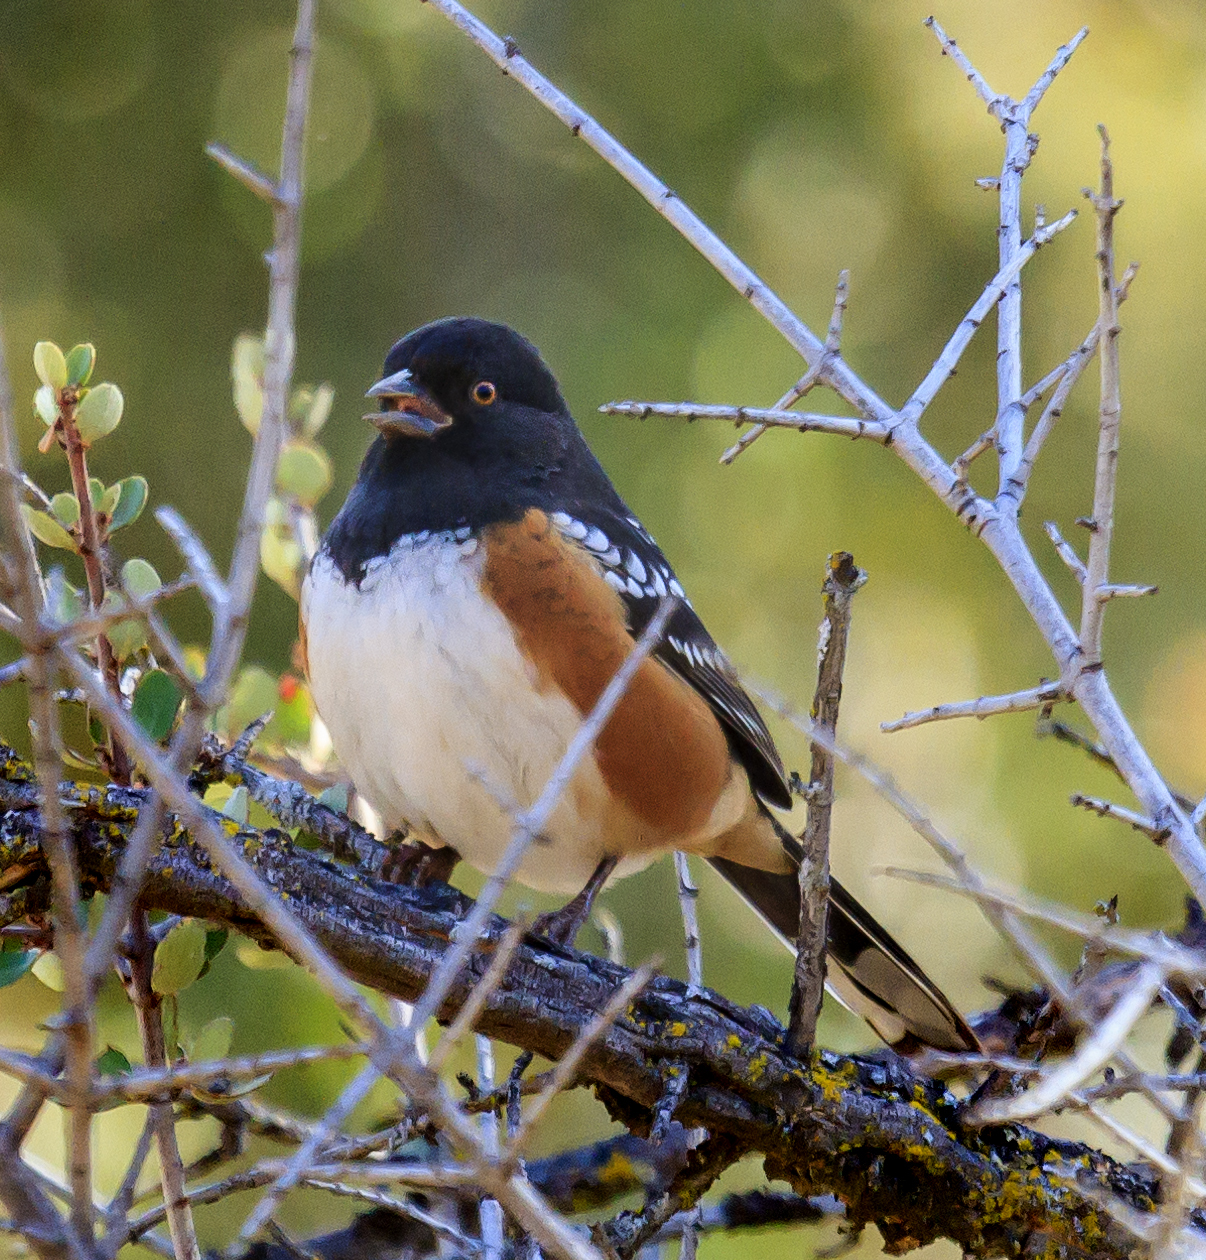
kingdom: Animalia
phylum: Chordata
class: Aves
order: Passeriformes
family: Passerellidae
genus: Pipilo
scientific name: Pipilo maculatus
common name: Spotted towhee
